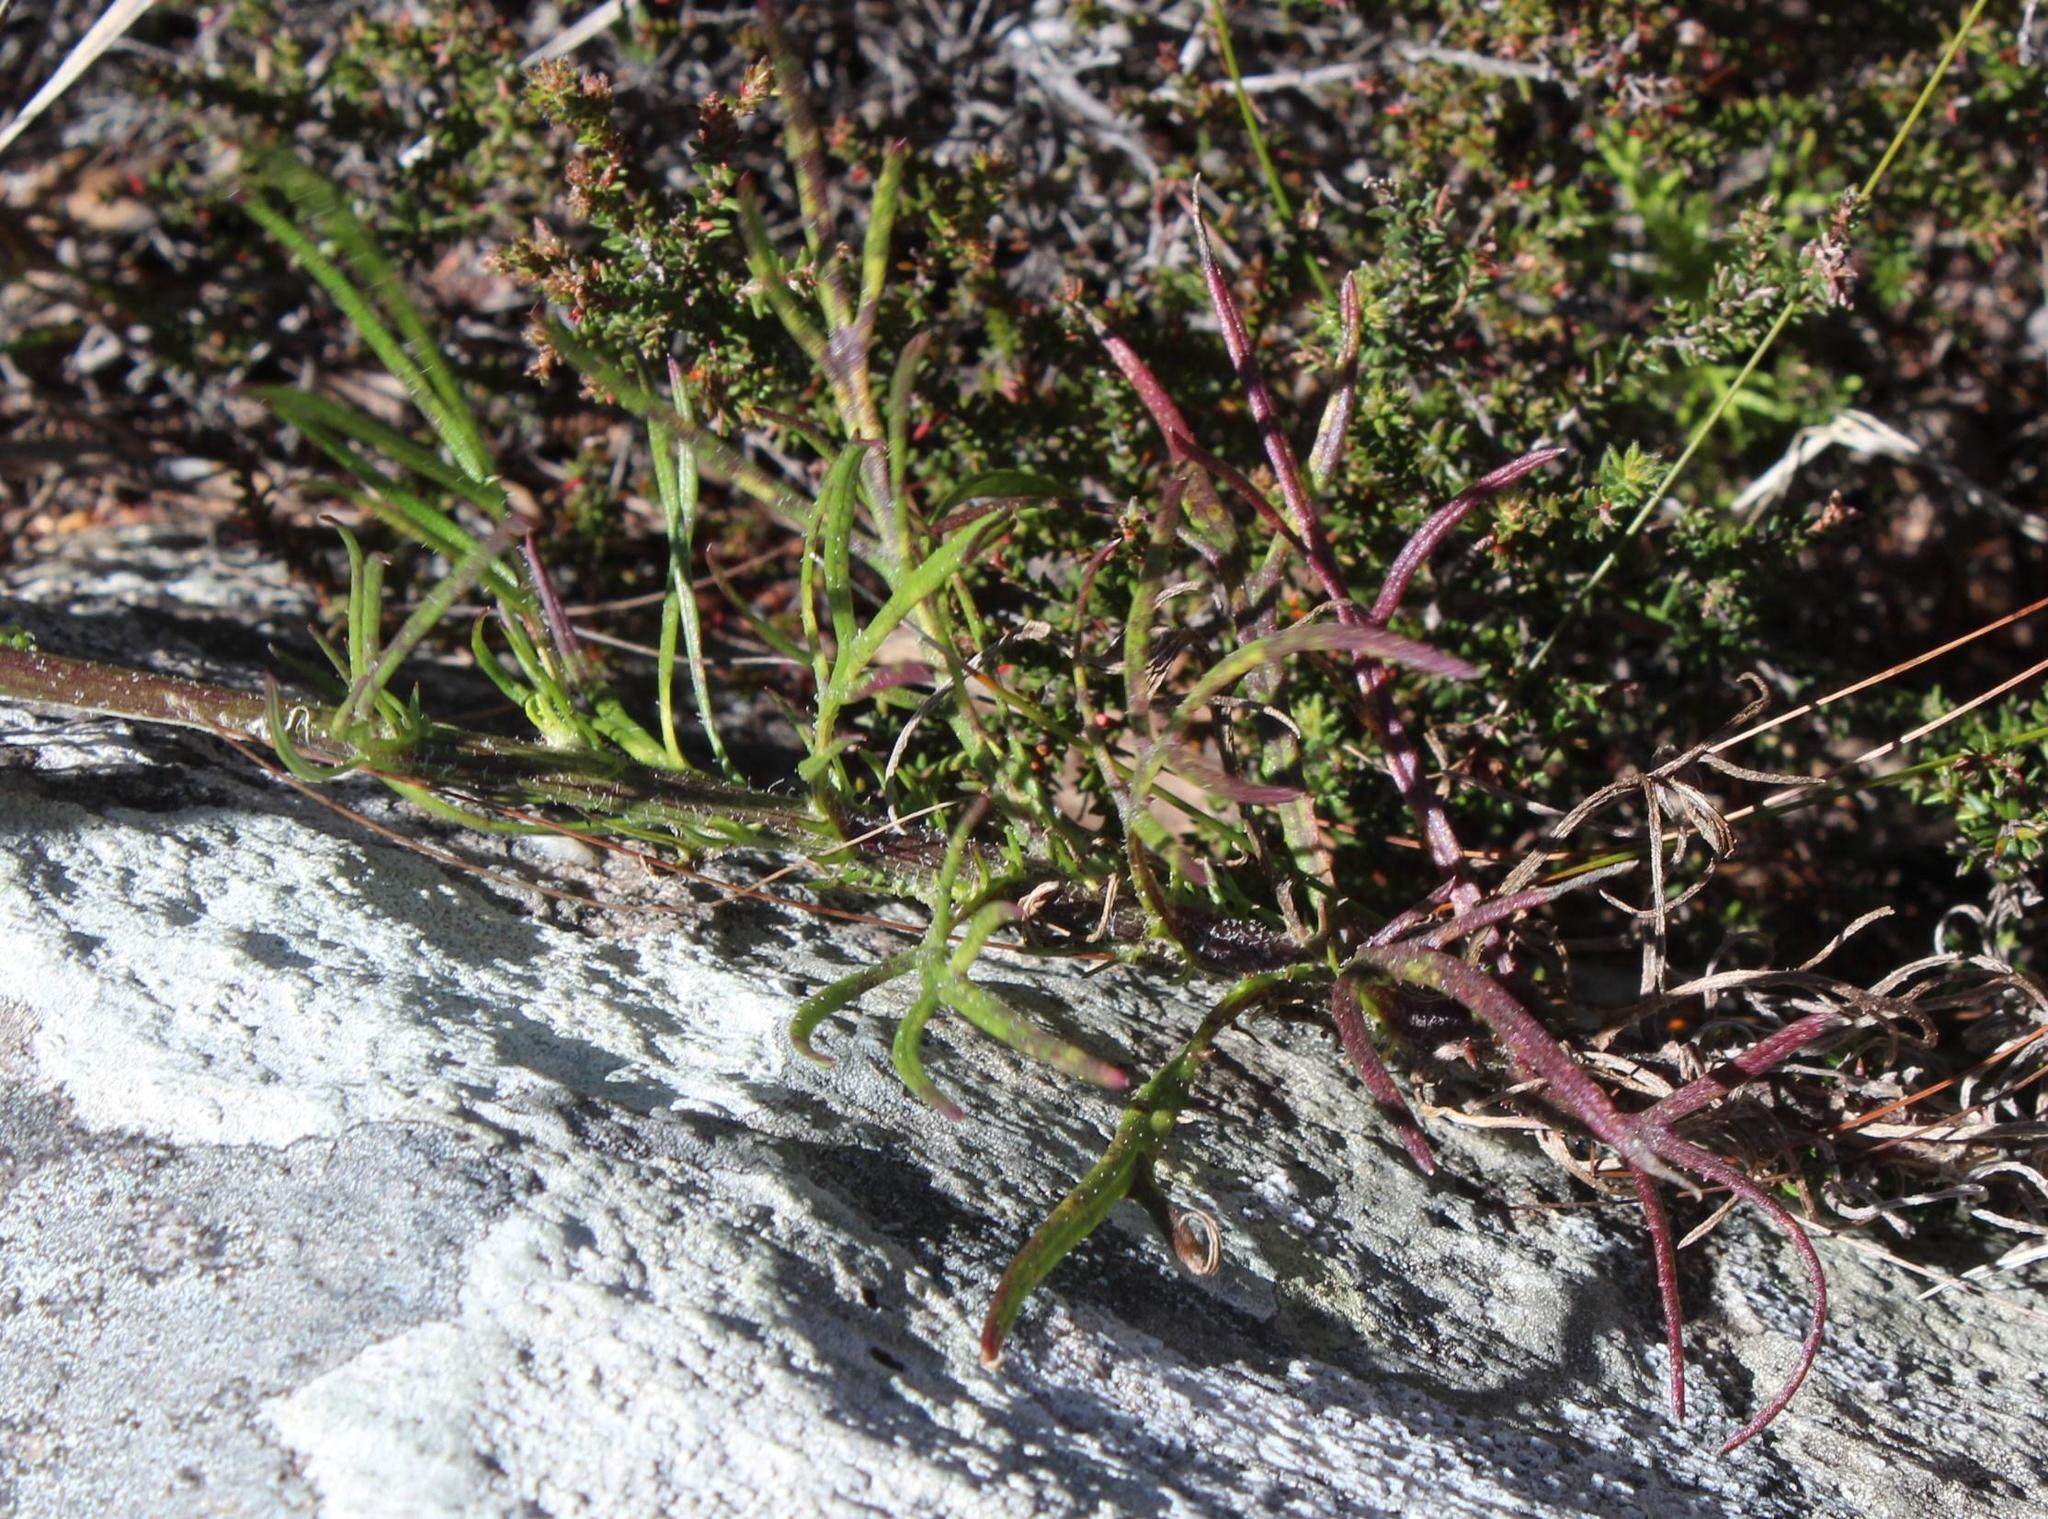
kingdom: Plantae
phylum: Tracheophyta
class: Magnoliopsida
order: Asterales
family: Asteraceae
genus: Senecio
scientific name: Senecio umbellatus
